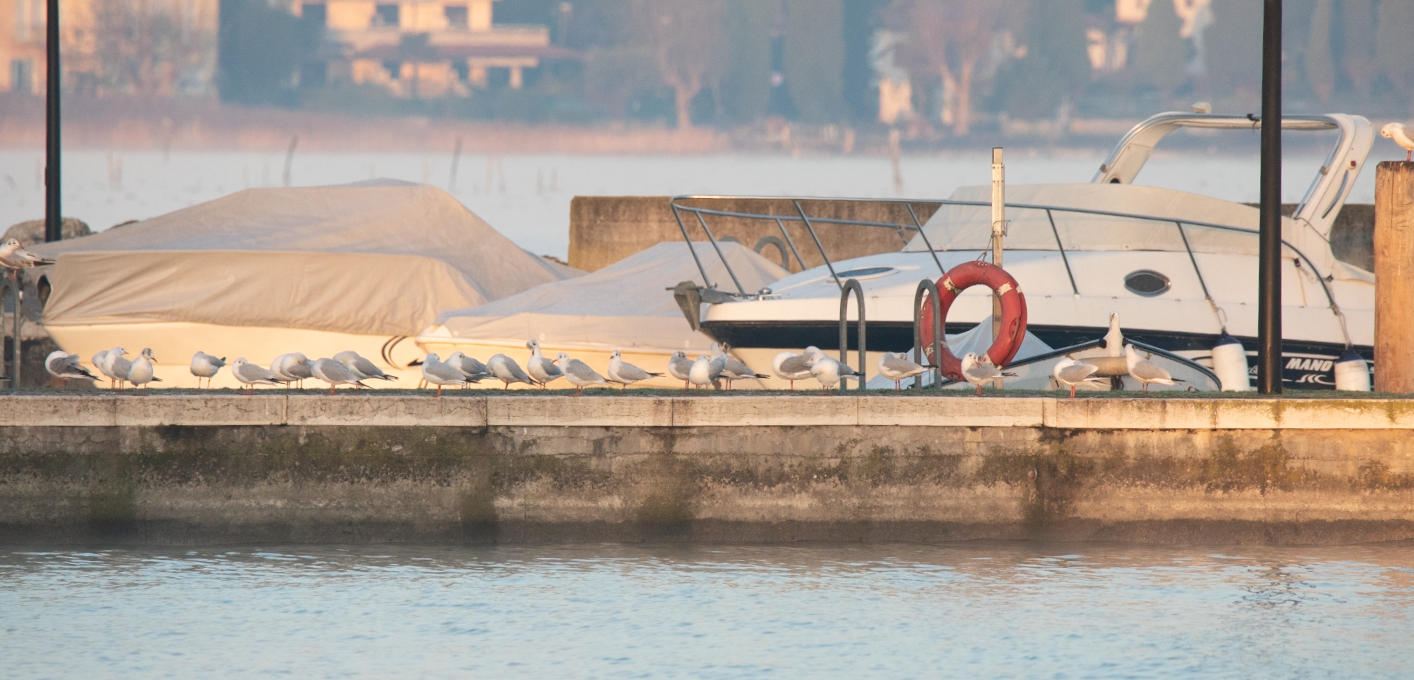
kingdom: Animalia
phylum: Chordata
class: Aves
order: Charadriiformes
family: Laridae
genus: Chroicocephalus
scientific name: Chroicocephalus ridibundus
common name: Black-headed gull
